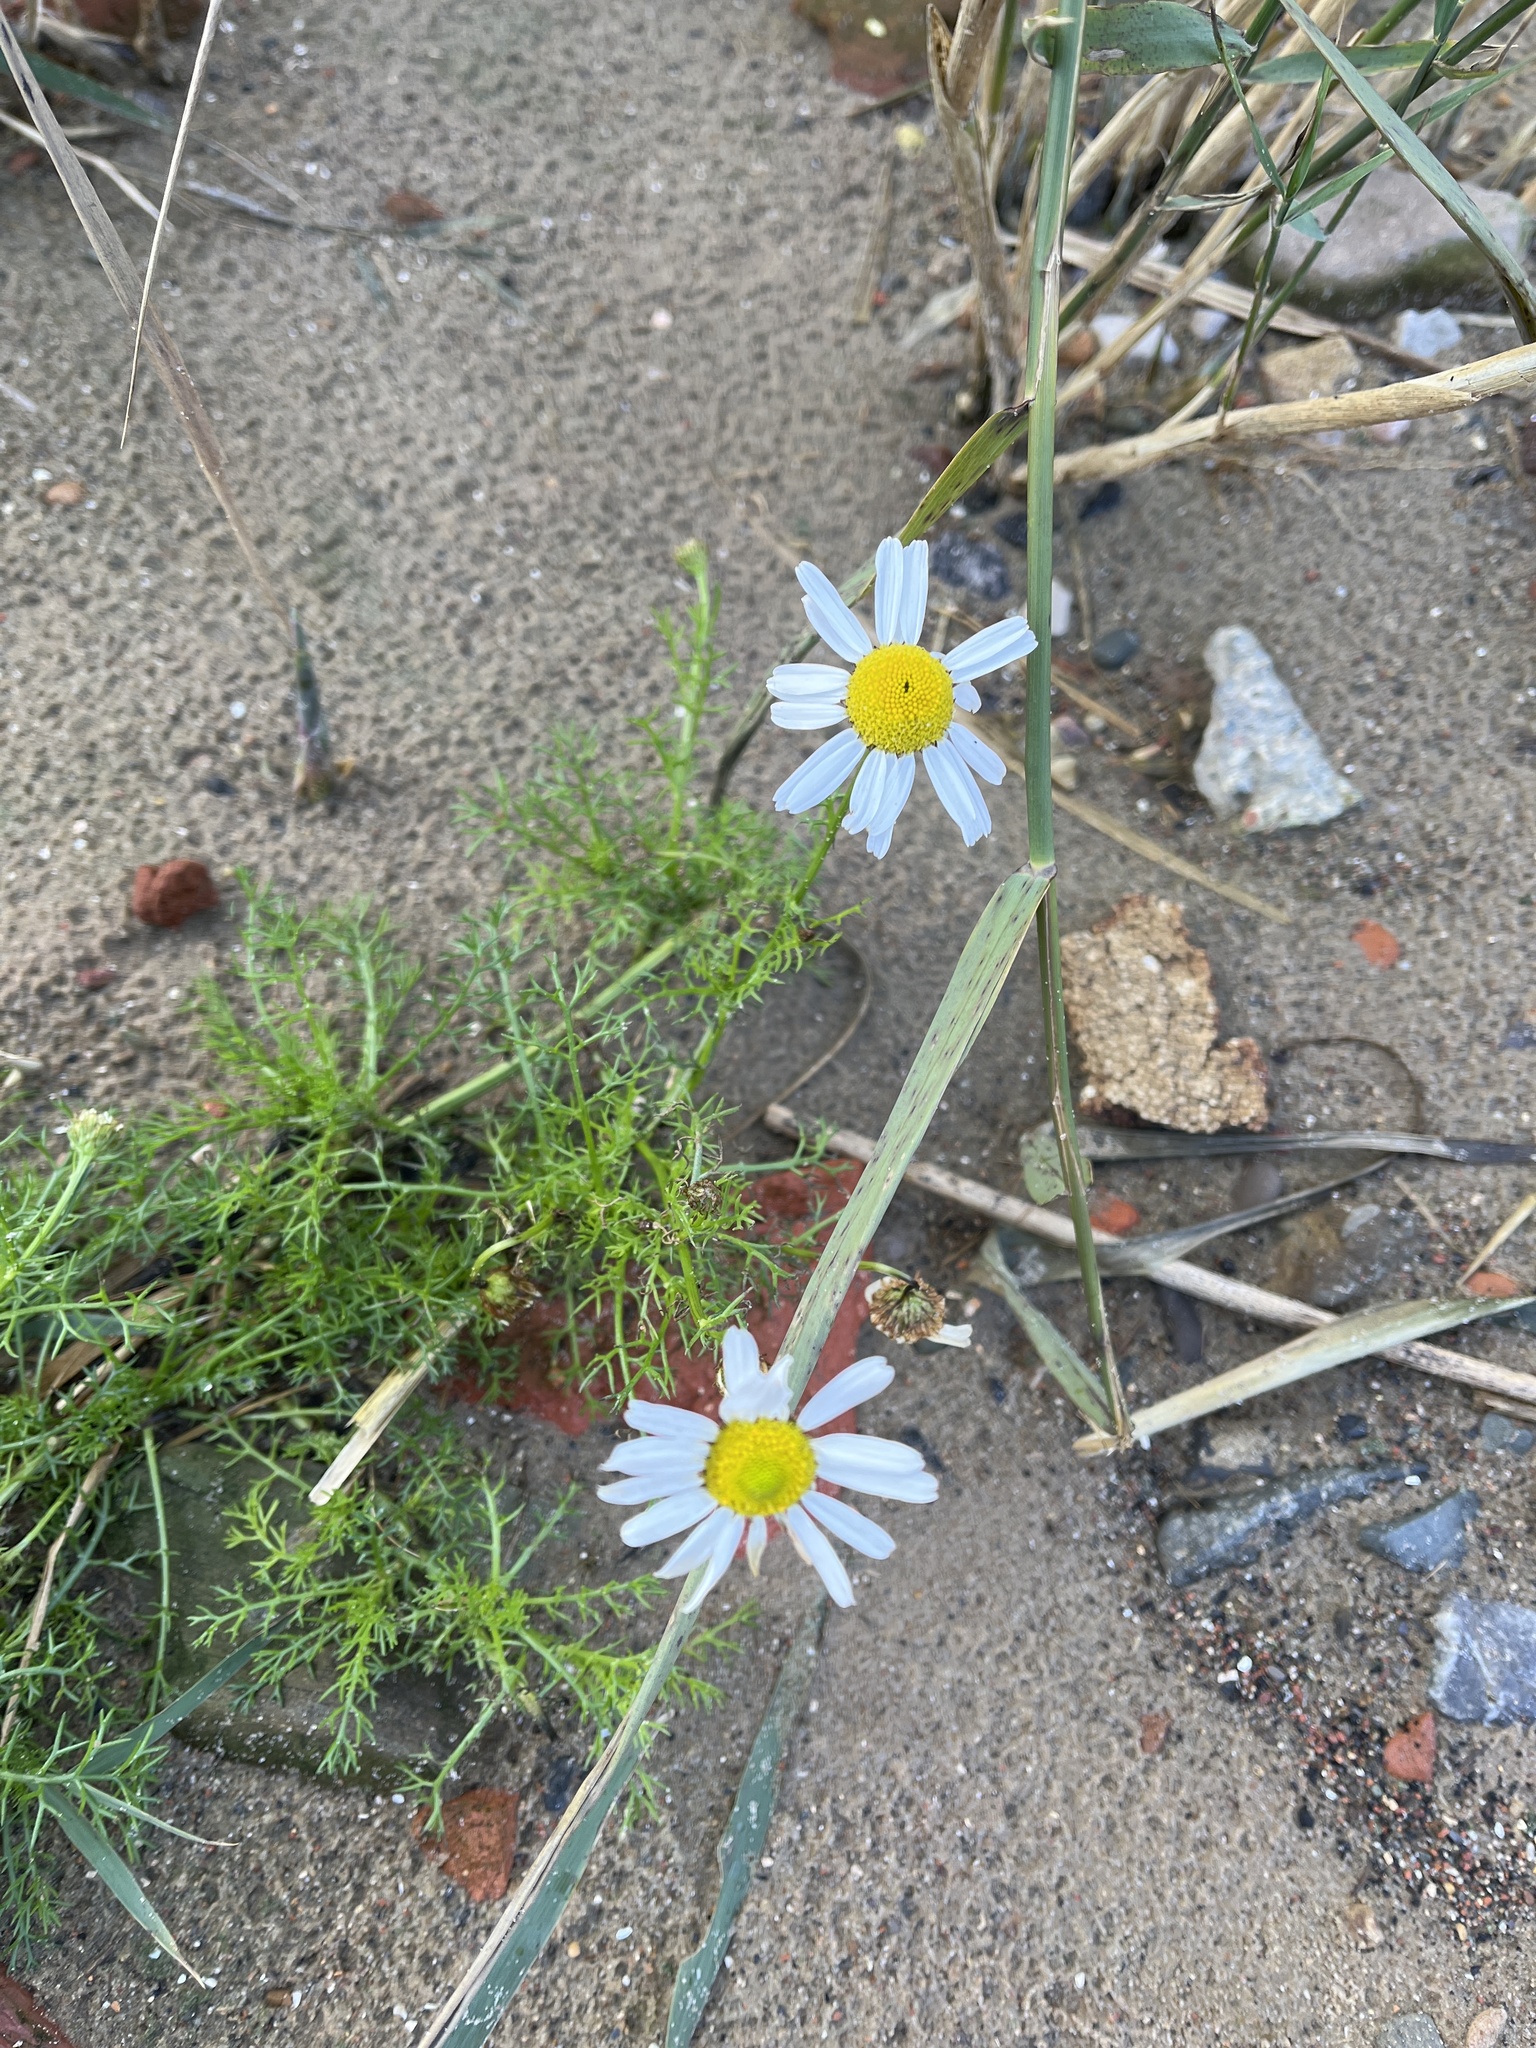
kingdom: Plantae
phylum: Tracheophyta
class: Magnoliopsida
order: Asterales
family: Asteraceae
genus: Tripleurospermum
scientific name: Tripleurospermum maritimum
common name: Sea mayweed
